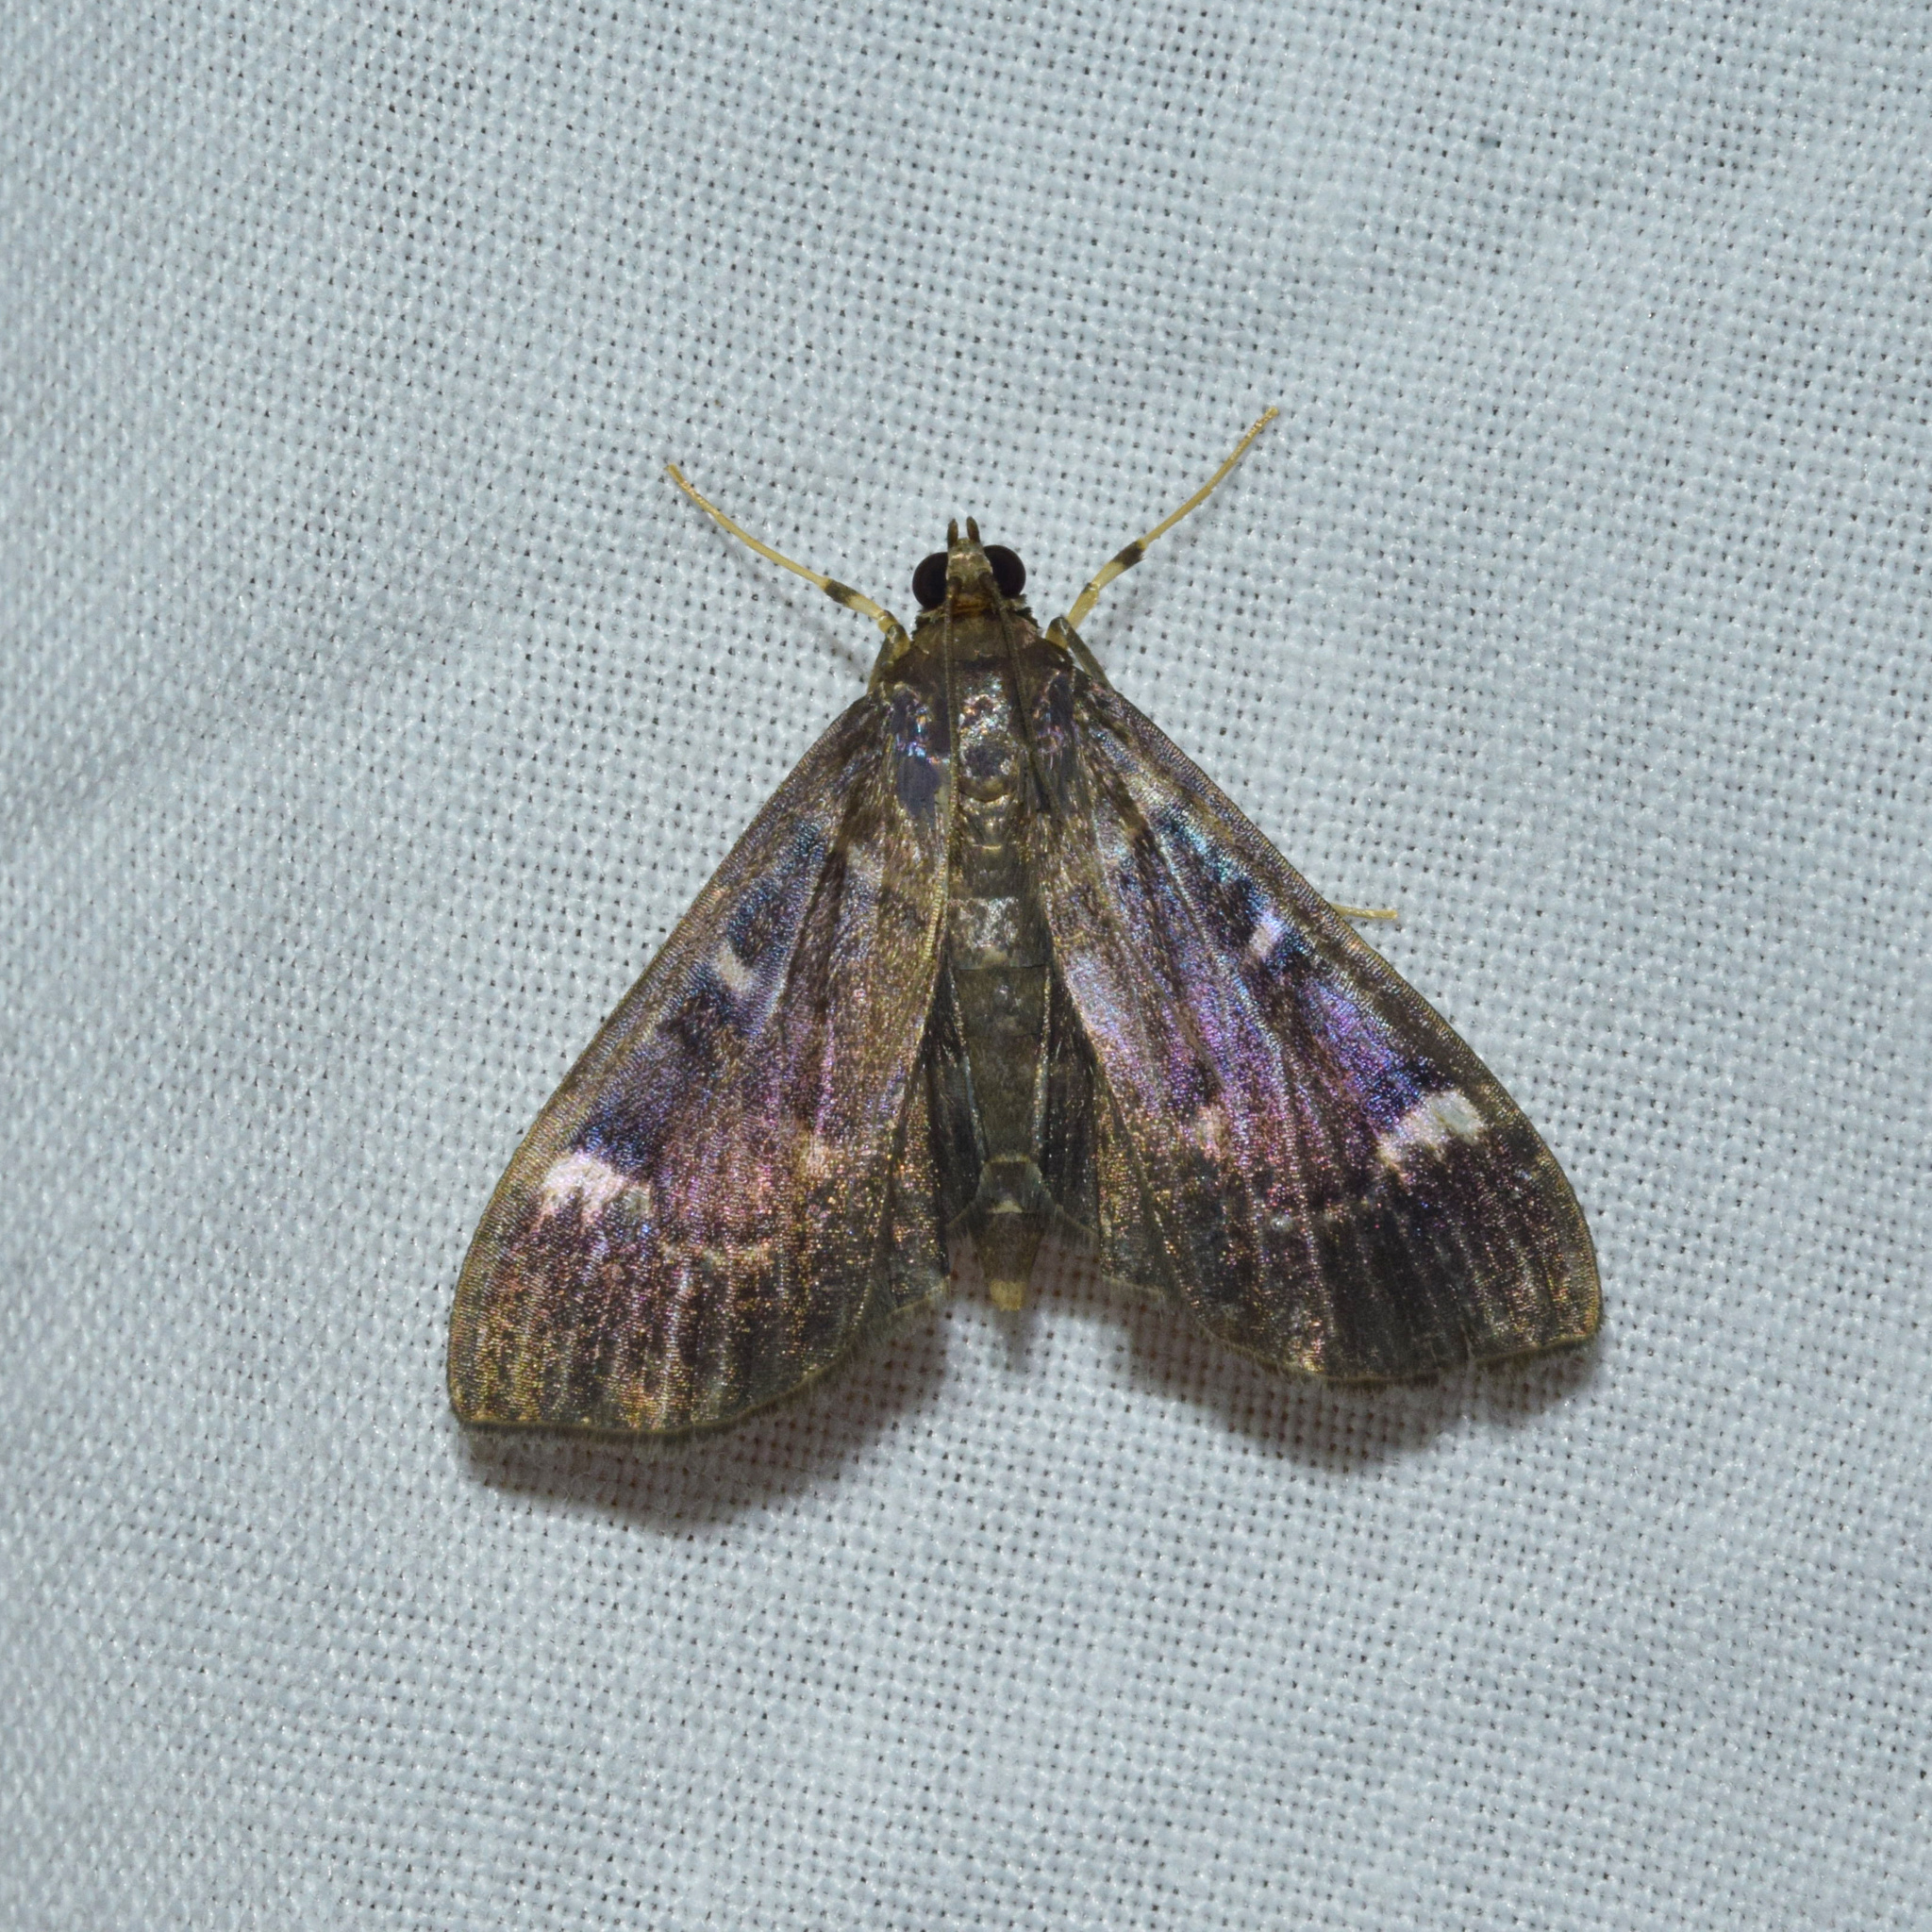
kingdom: Animalia
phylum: Arthropoda
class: Insecta
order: Lepidoptera
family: Crambidae
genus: Syllepte
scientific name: Syllepte purpurascens
